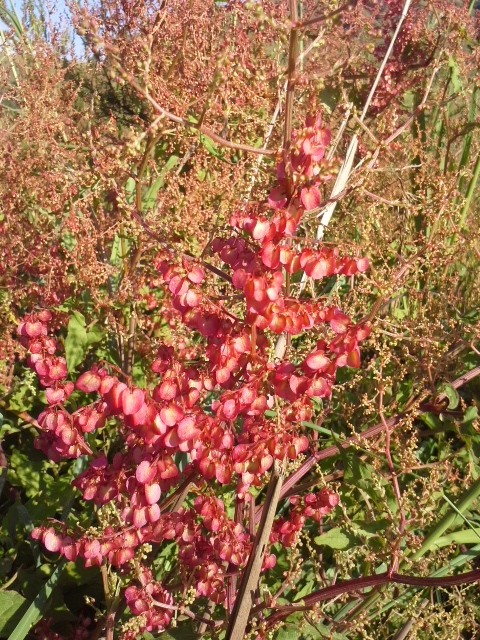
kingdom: Plantae
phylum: Tracheophyta
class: Magnoliopsida
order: Caryophyllales
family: Polygonaceae
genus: Rumex
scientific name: Rumex sagittatus
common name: Climbing dock
